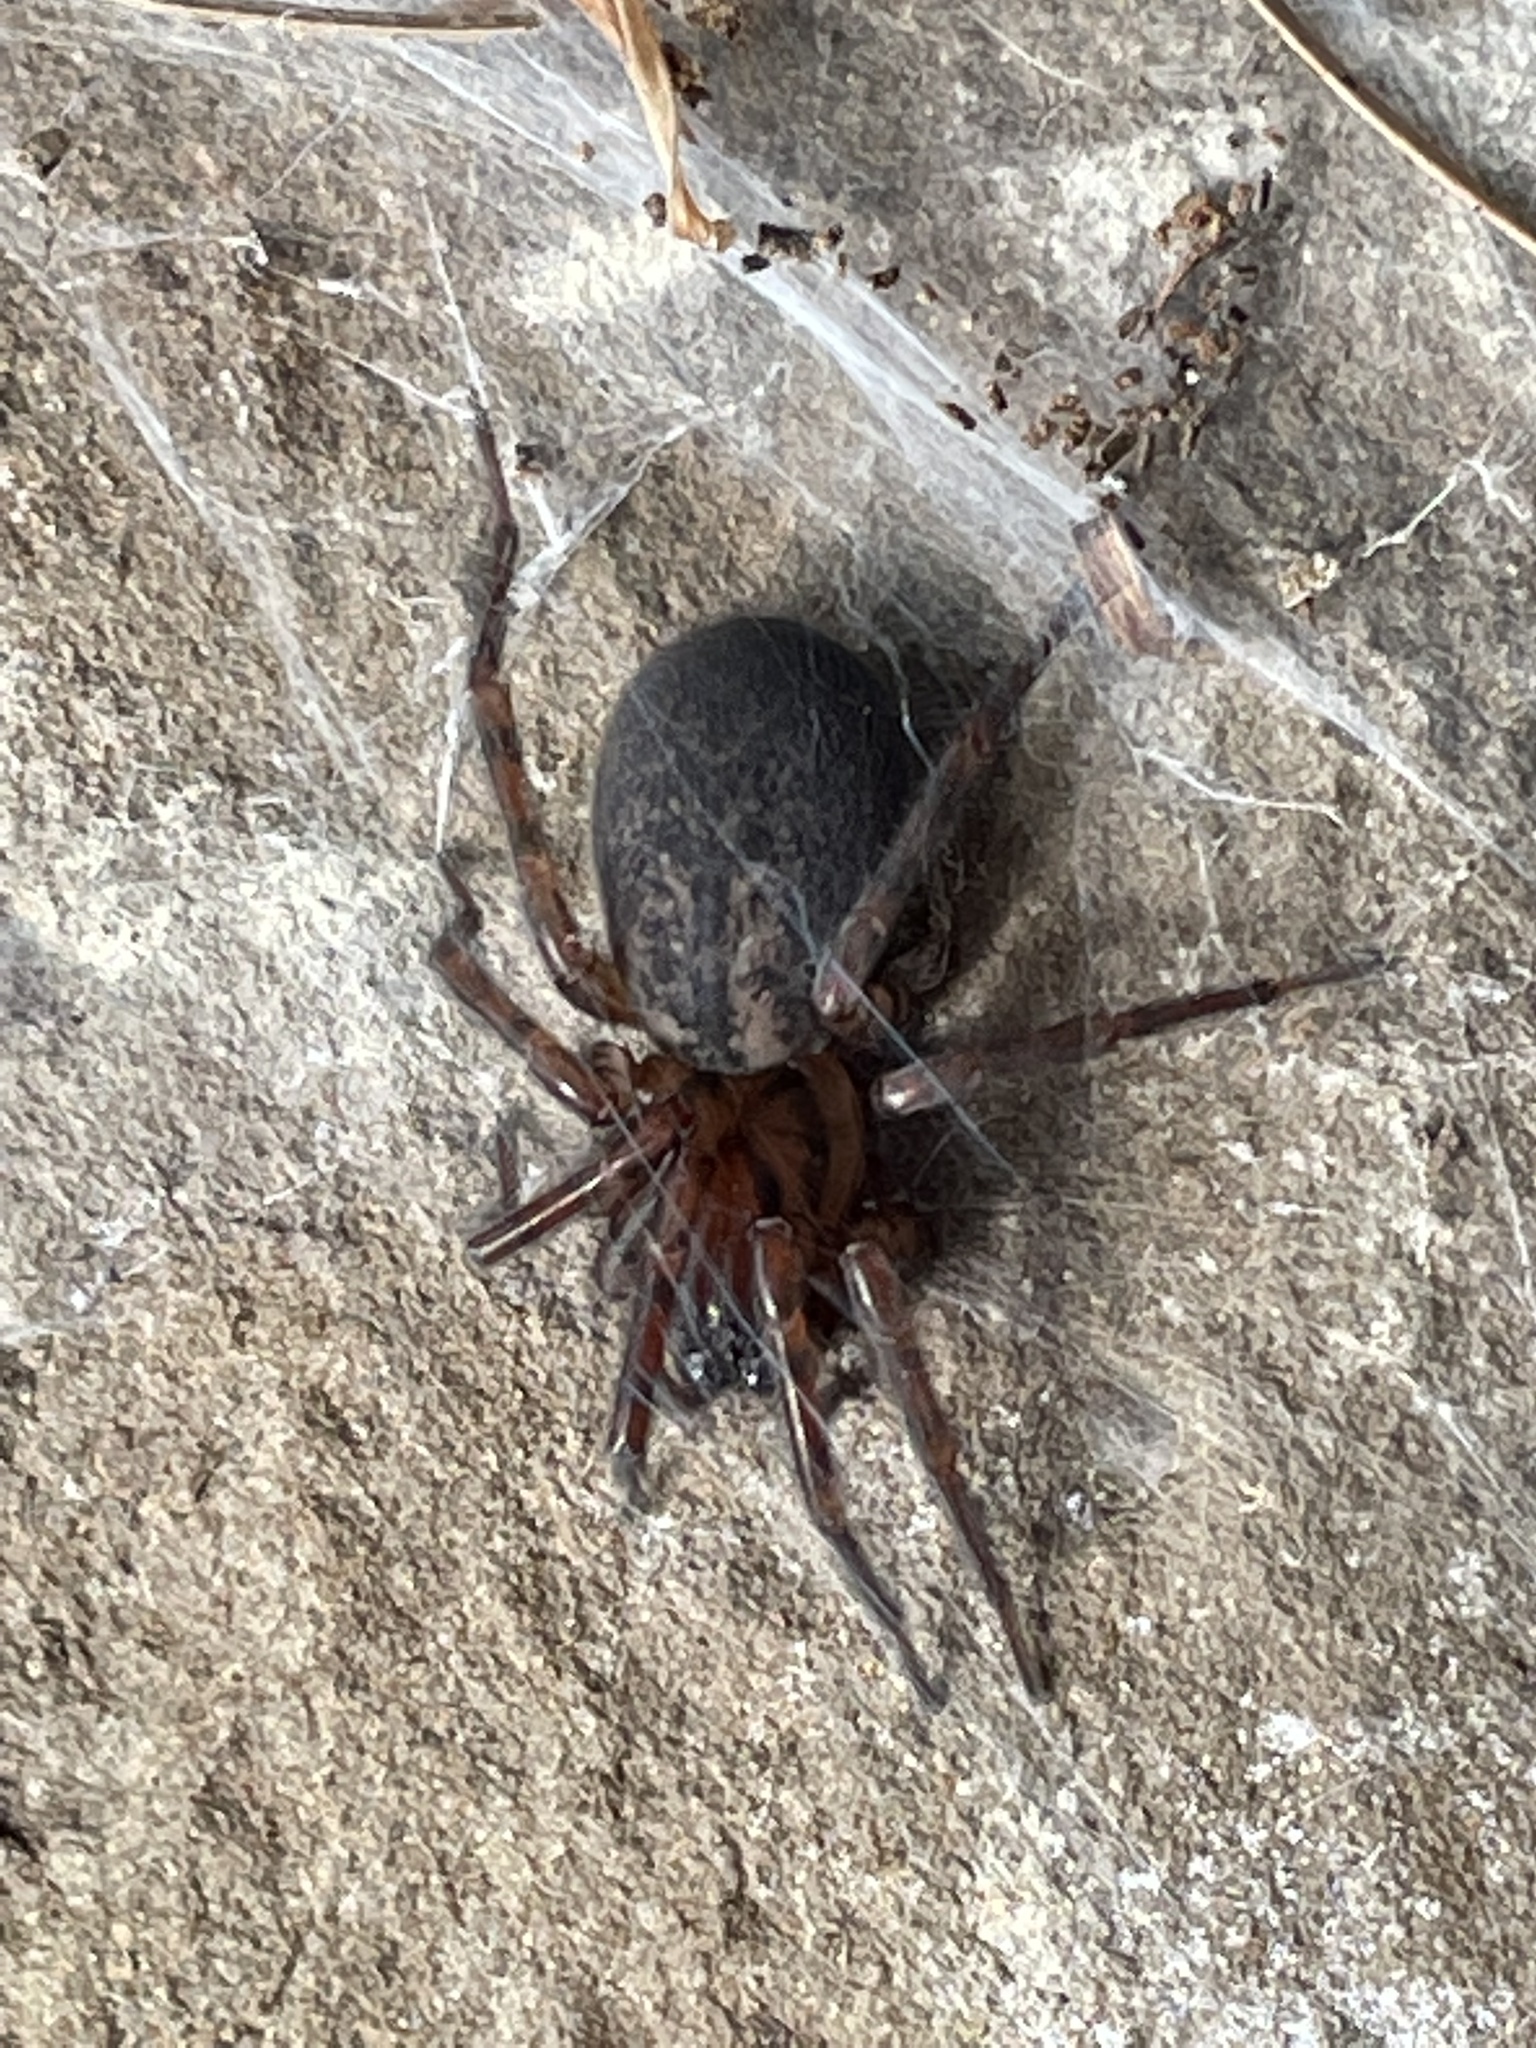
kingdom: Animalia
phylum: Arthropoda
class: Arachnida
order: Araneae
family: Agelenidae
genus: Coras
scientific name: Coras
